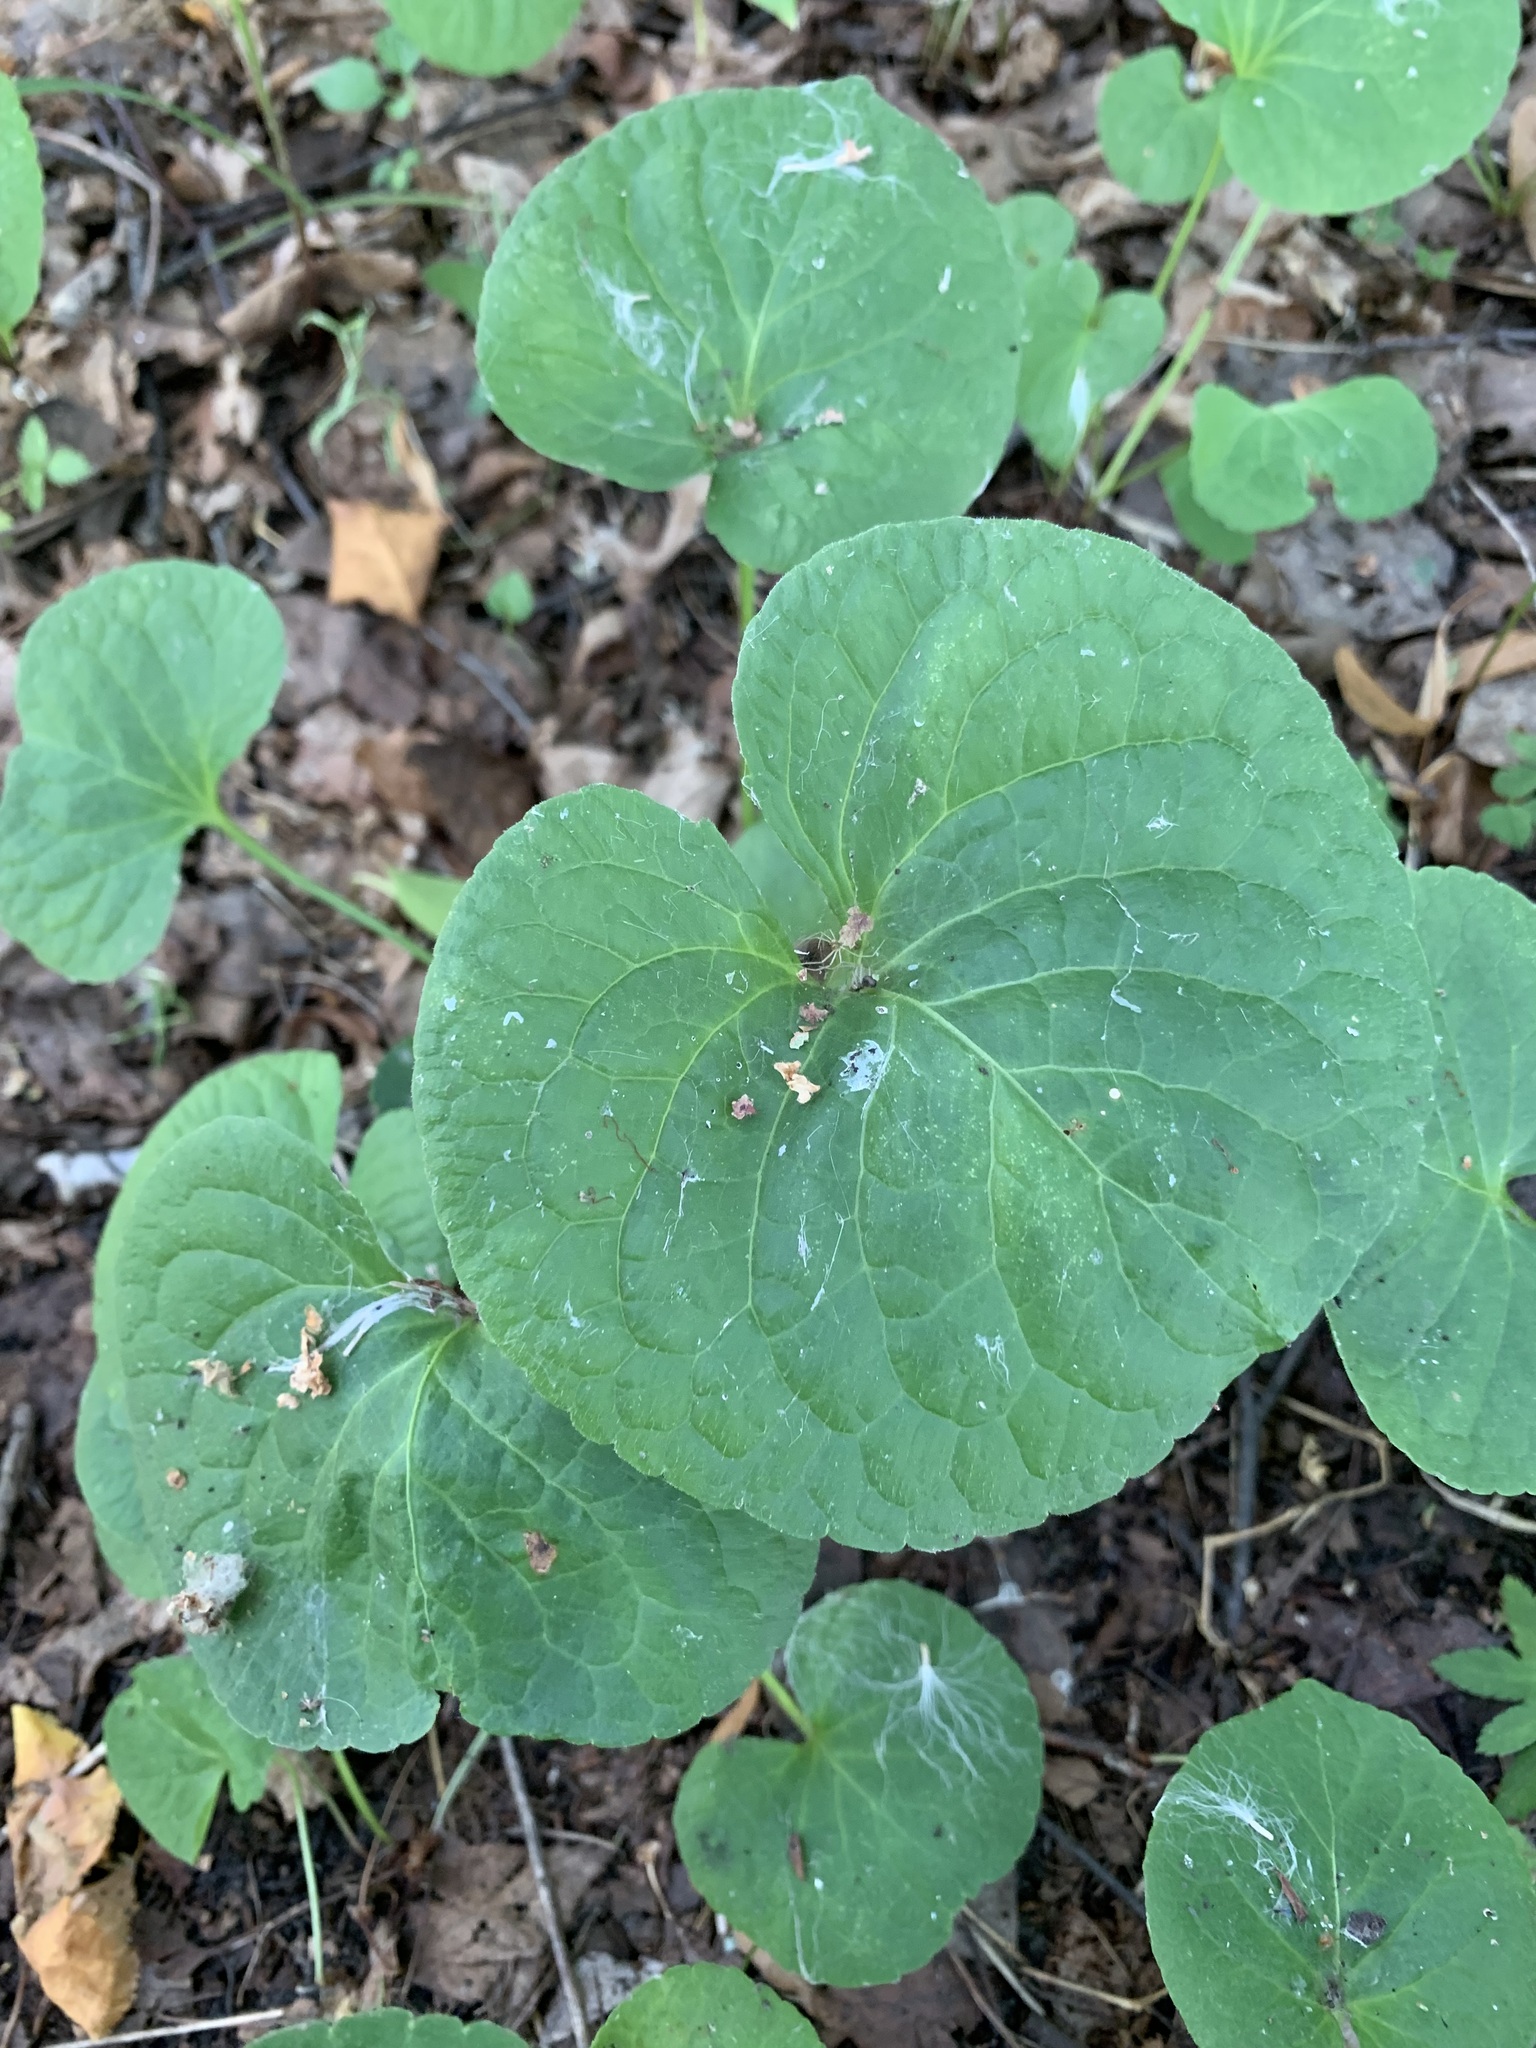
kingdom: Plantae
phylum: Tracheophyta
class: Magnoliopsida
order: Malpighiales
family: Violaceae
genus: Viola
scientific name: Viola mirabilis
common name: Wonder violet
